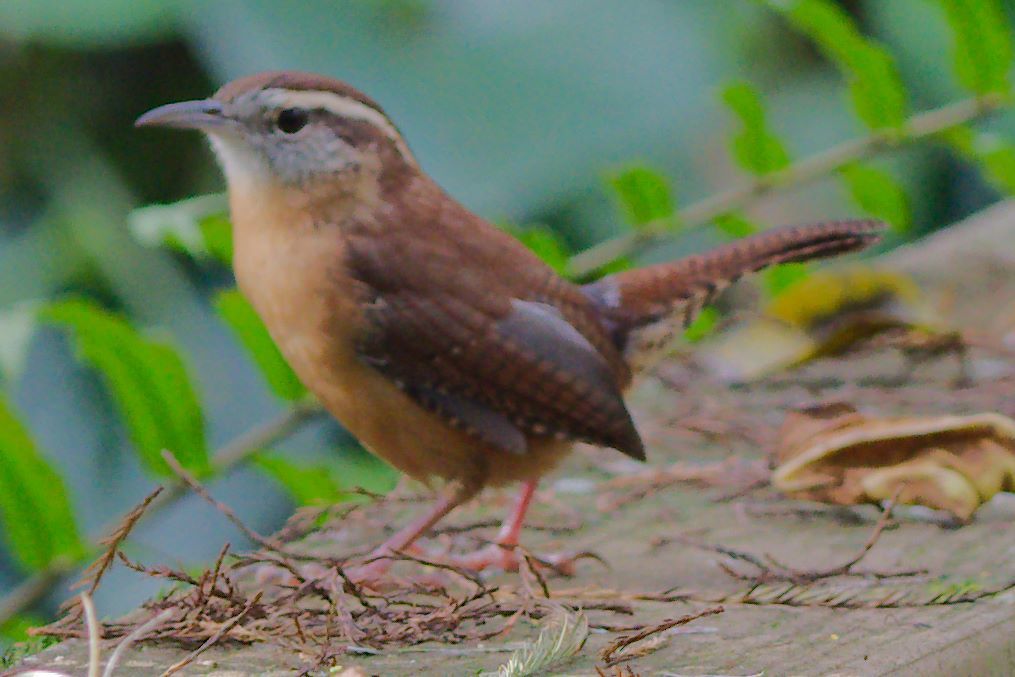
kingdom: Animalia
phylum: Chordata
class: Aves
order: Passeriformes
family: Troglodytidae
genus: Thryothorus
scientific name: Thryothorus ludovicianus
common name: Carolina wren
